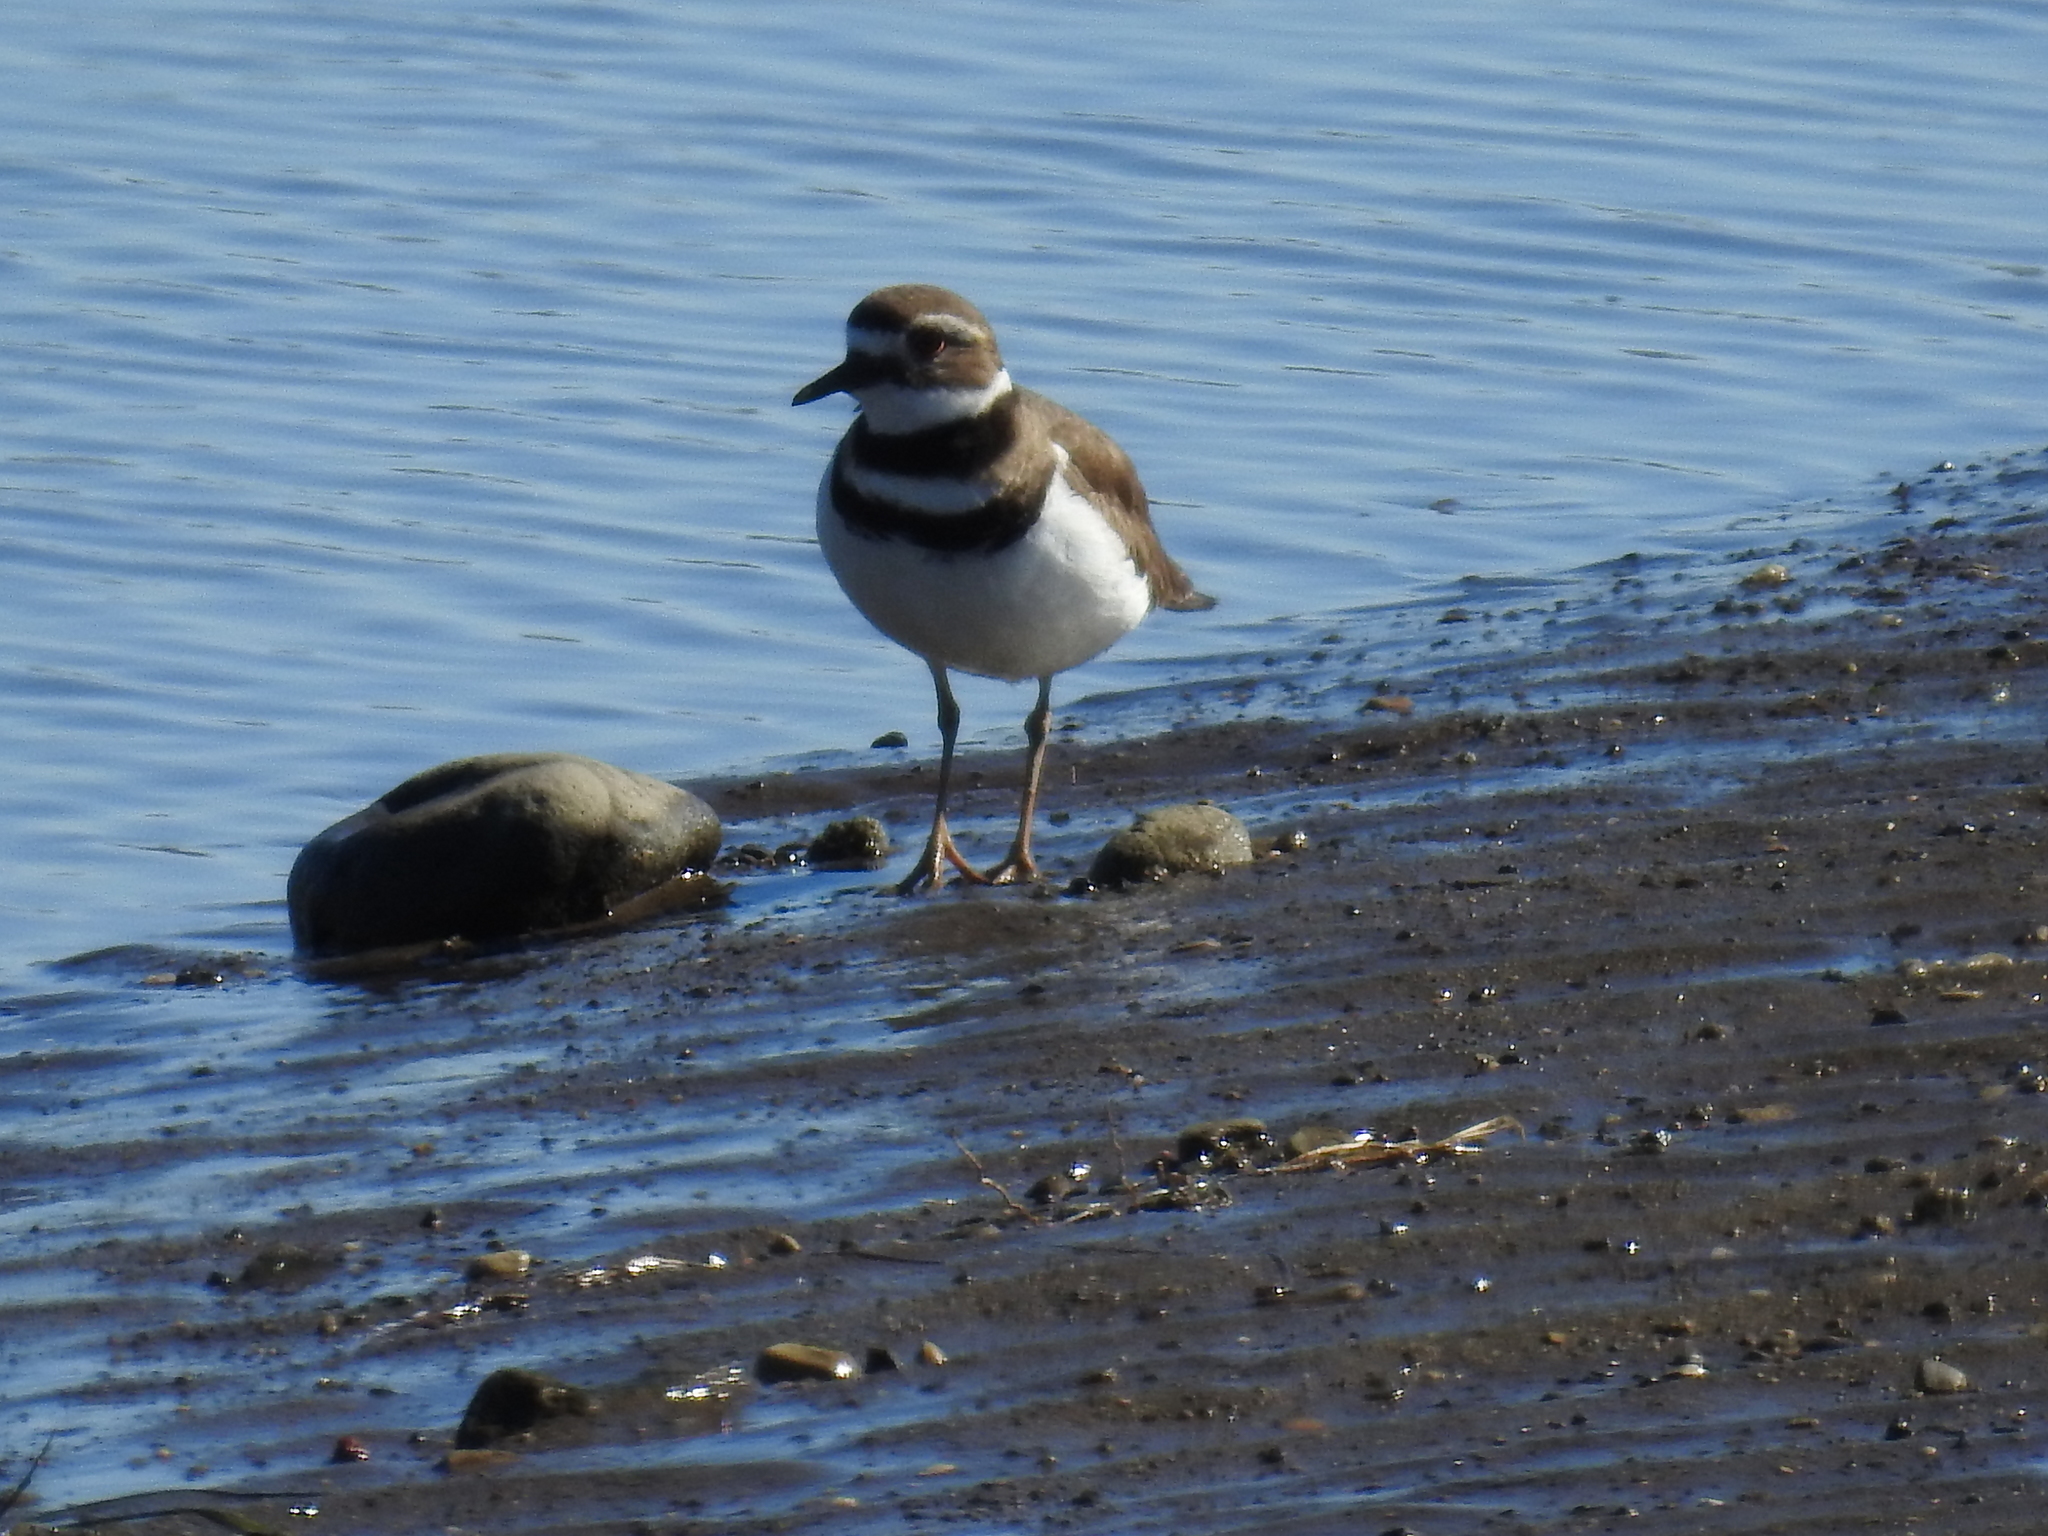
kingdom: Animalia
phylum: Chordata
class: Aves
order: Charadriiformes
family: Charadriidae
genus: Charadrius
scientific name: Charadrius vociferus
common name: Killdeer
